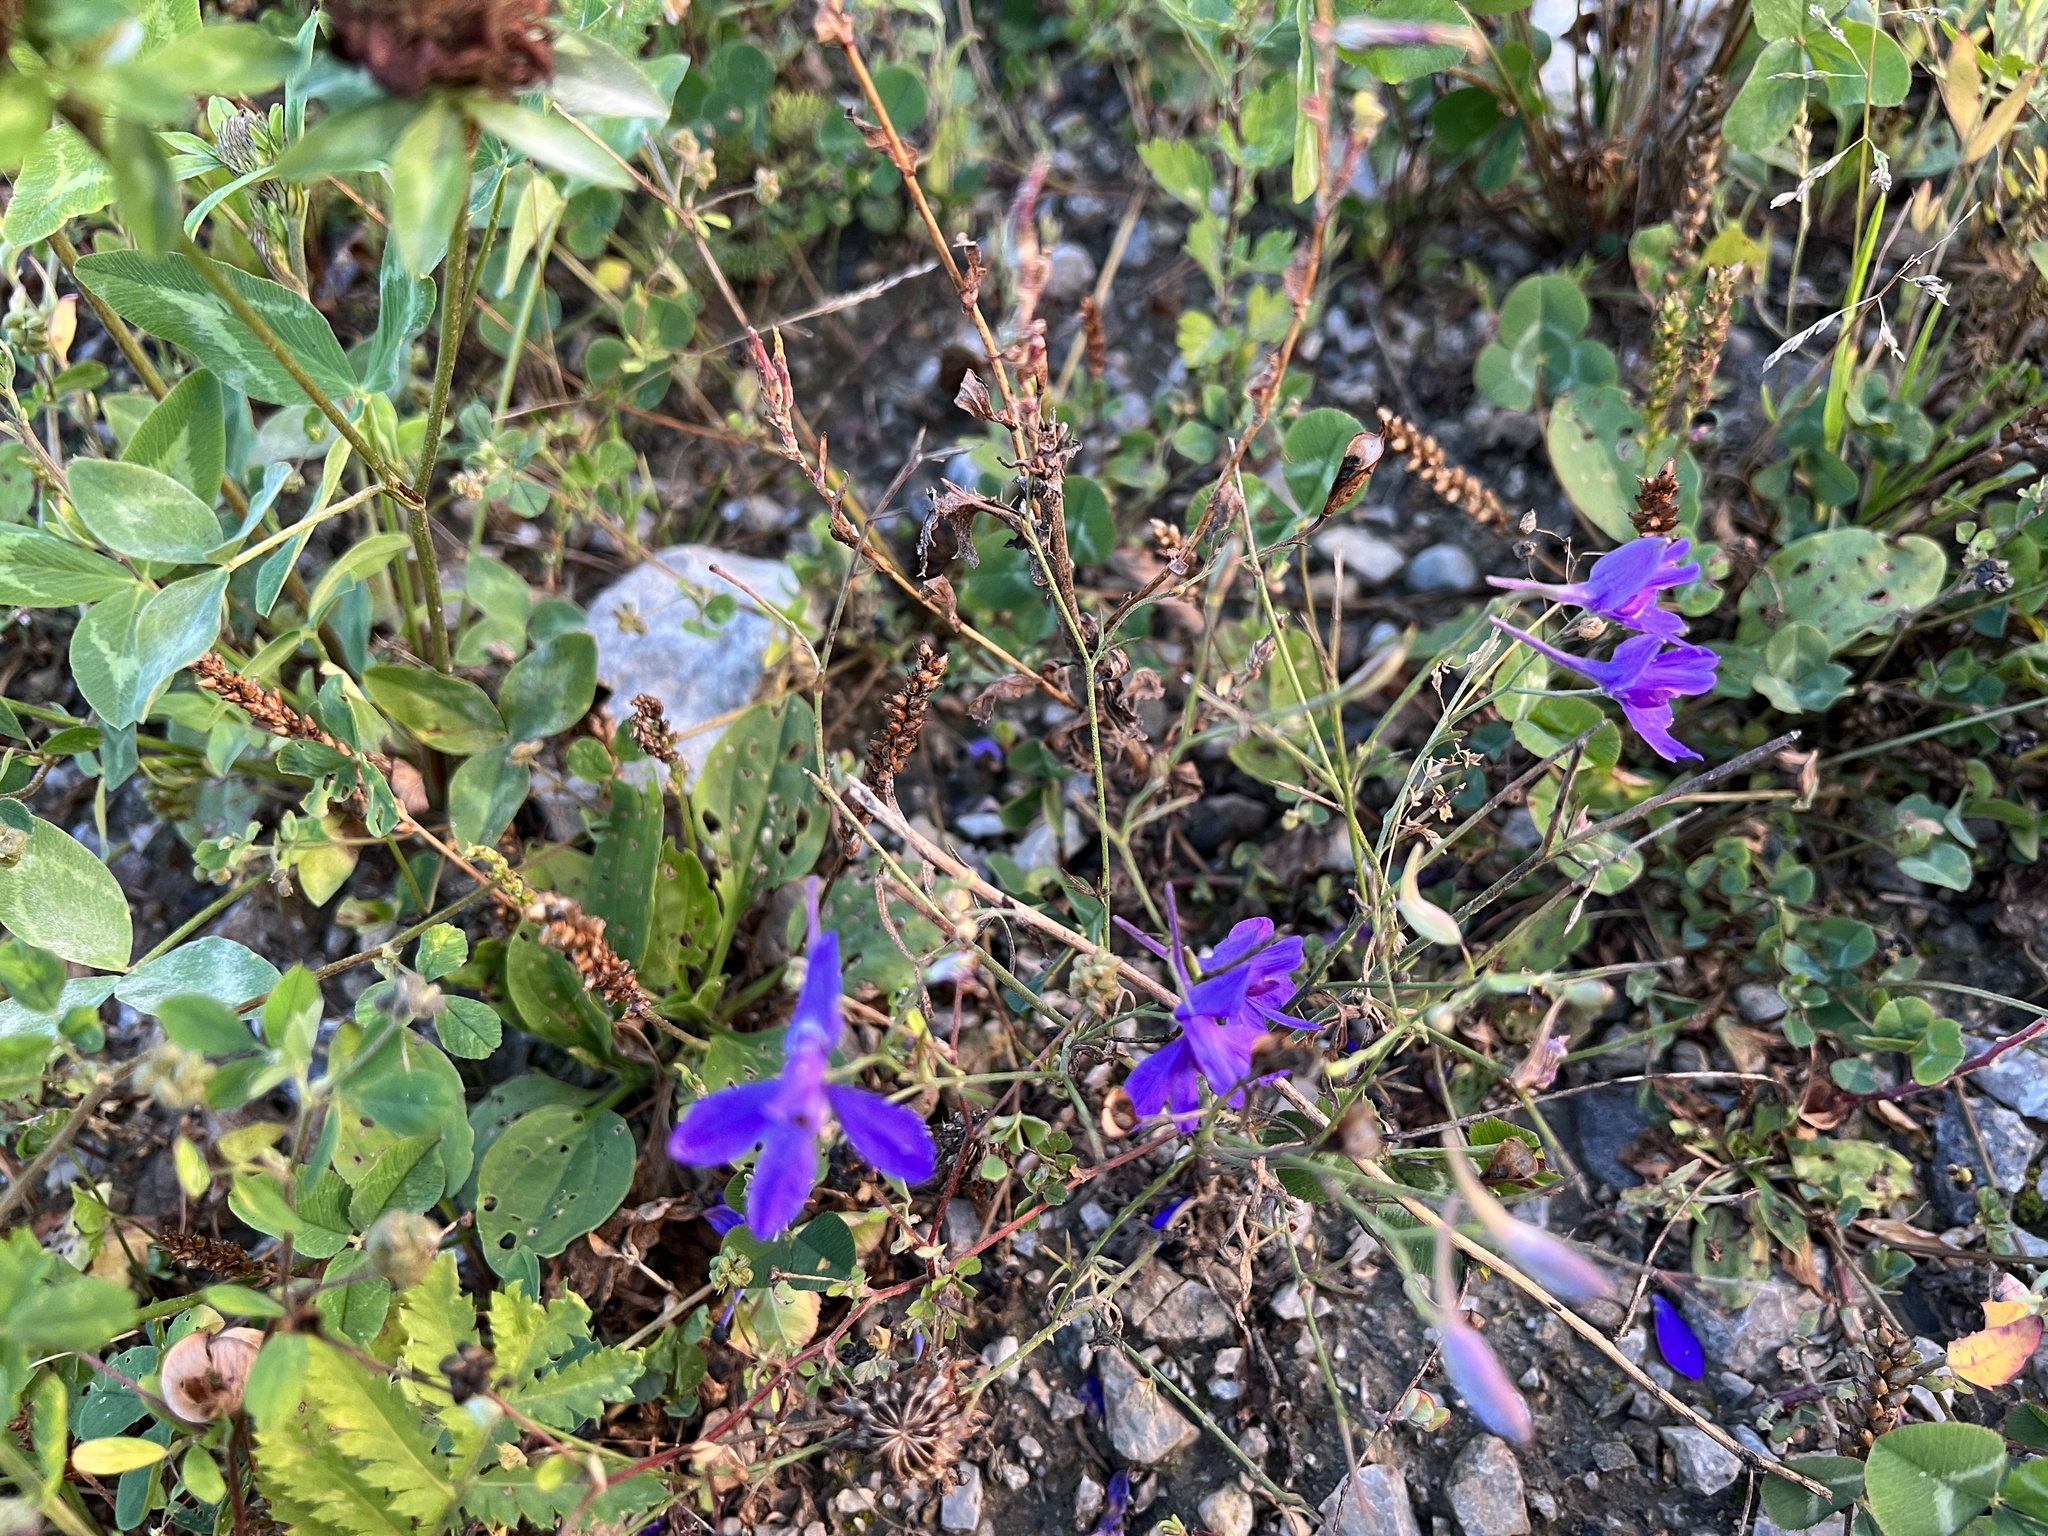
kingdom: Plantae
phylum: Tracheophyta
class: Magnoliopsida
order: Ranunculales
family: Ranunculaceae
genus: Delphinium
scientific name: Delphinium consolida
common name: Branching larkspur
